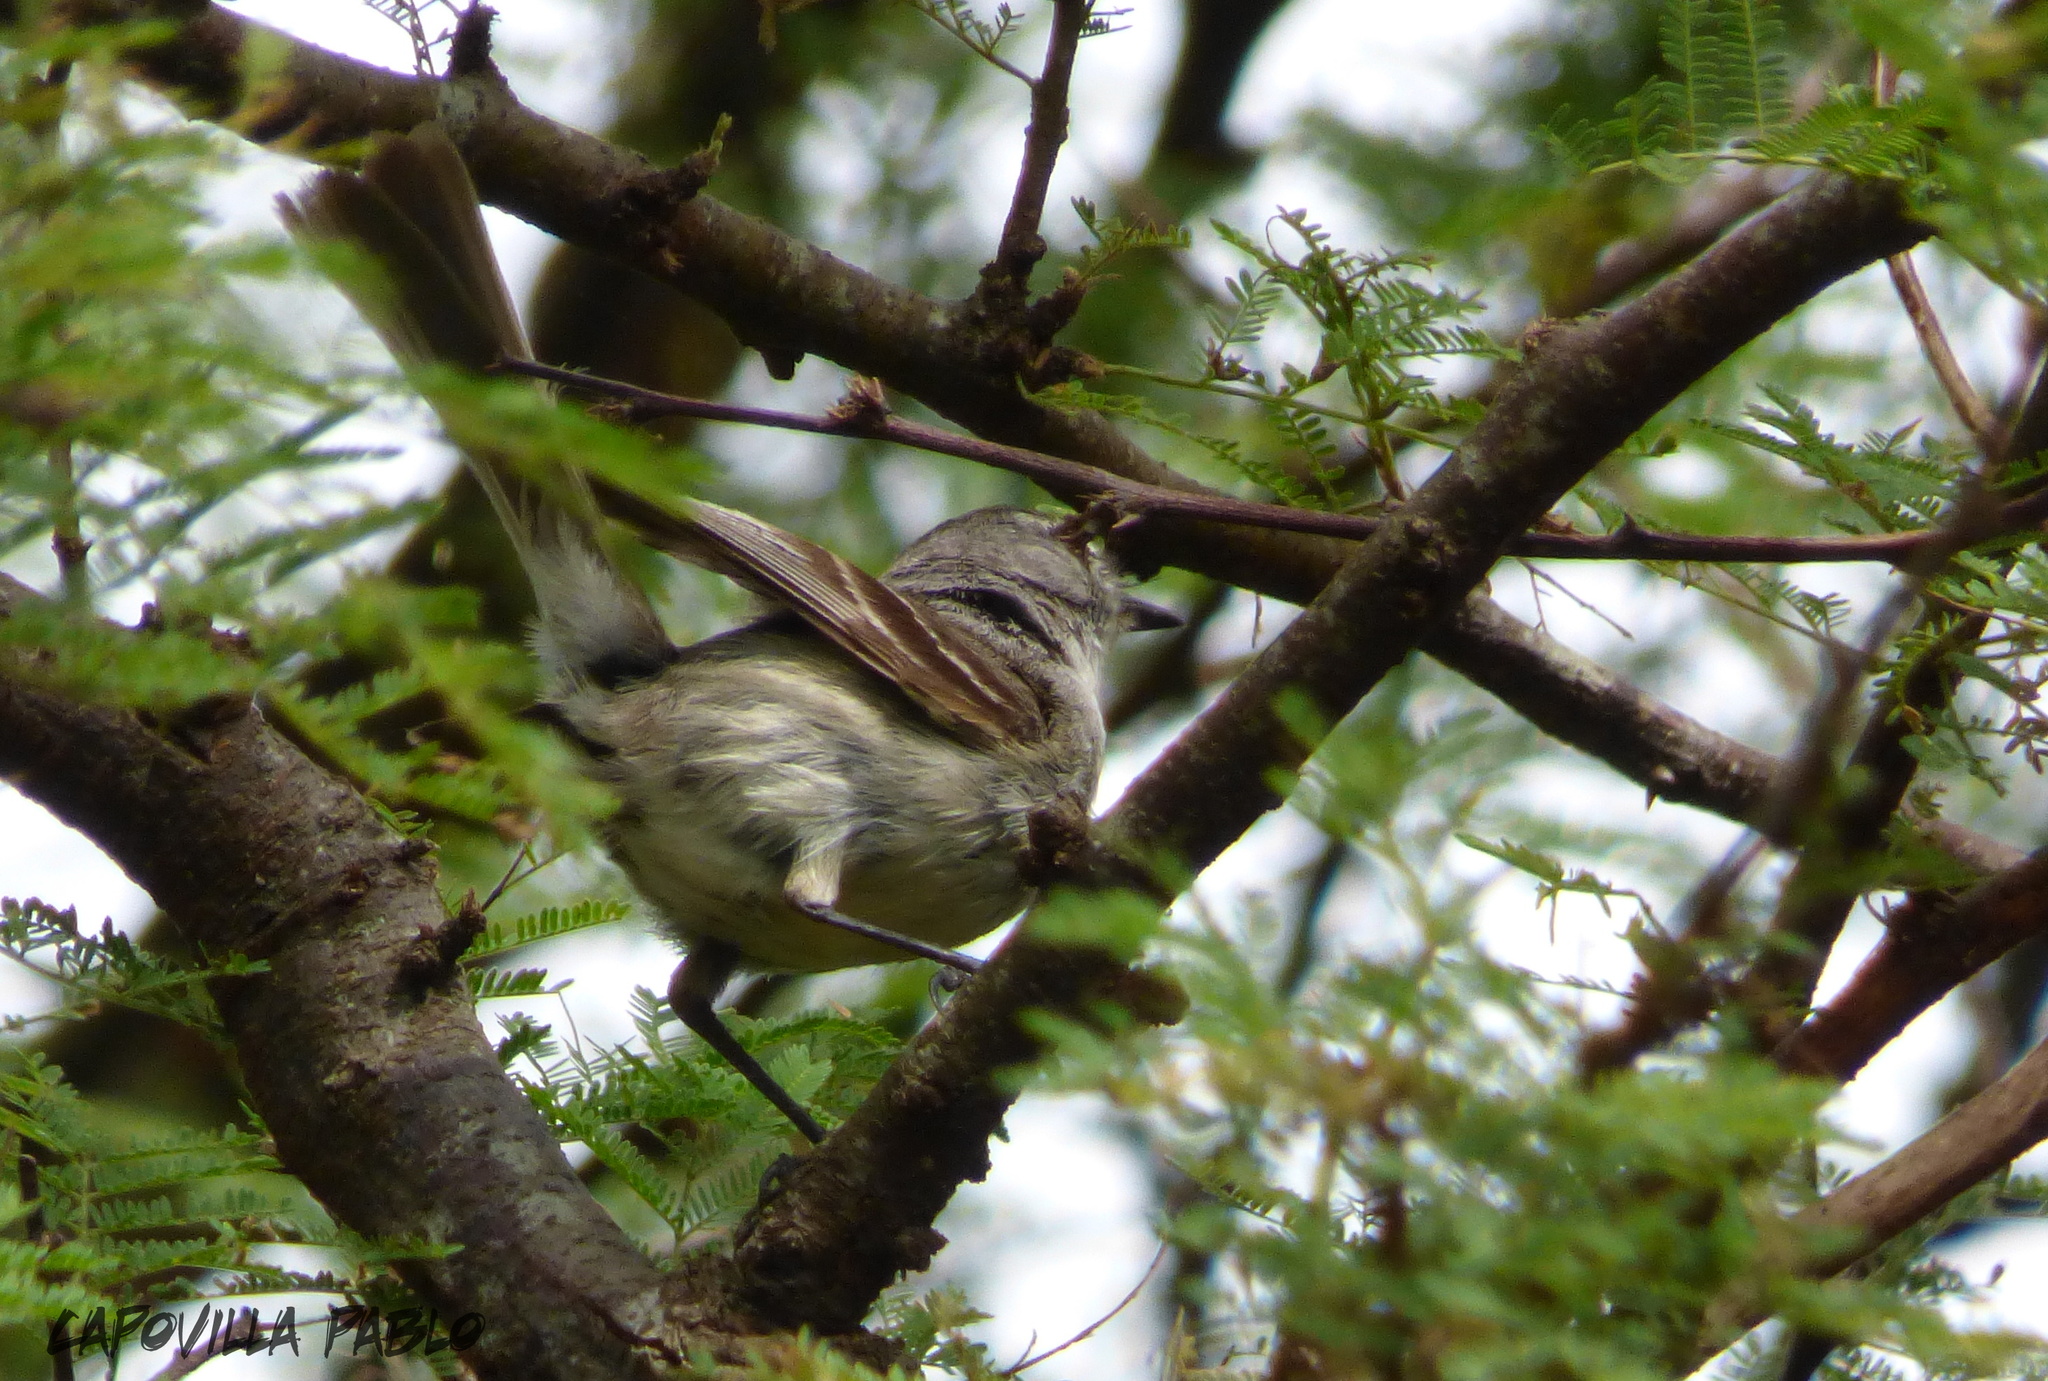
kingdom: Animalia
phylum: Chordata
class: Aves
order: Passeriformes
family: Tyrannidae
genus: Sublegatus
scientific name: Sublegatus modestus
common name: Southern scrub flycatcher
